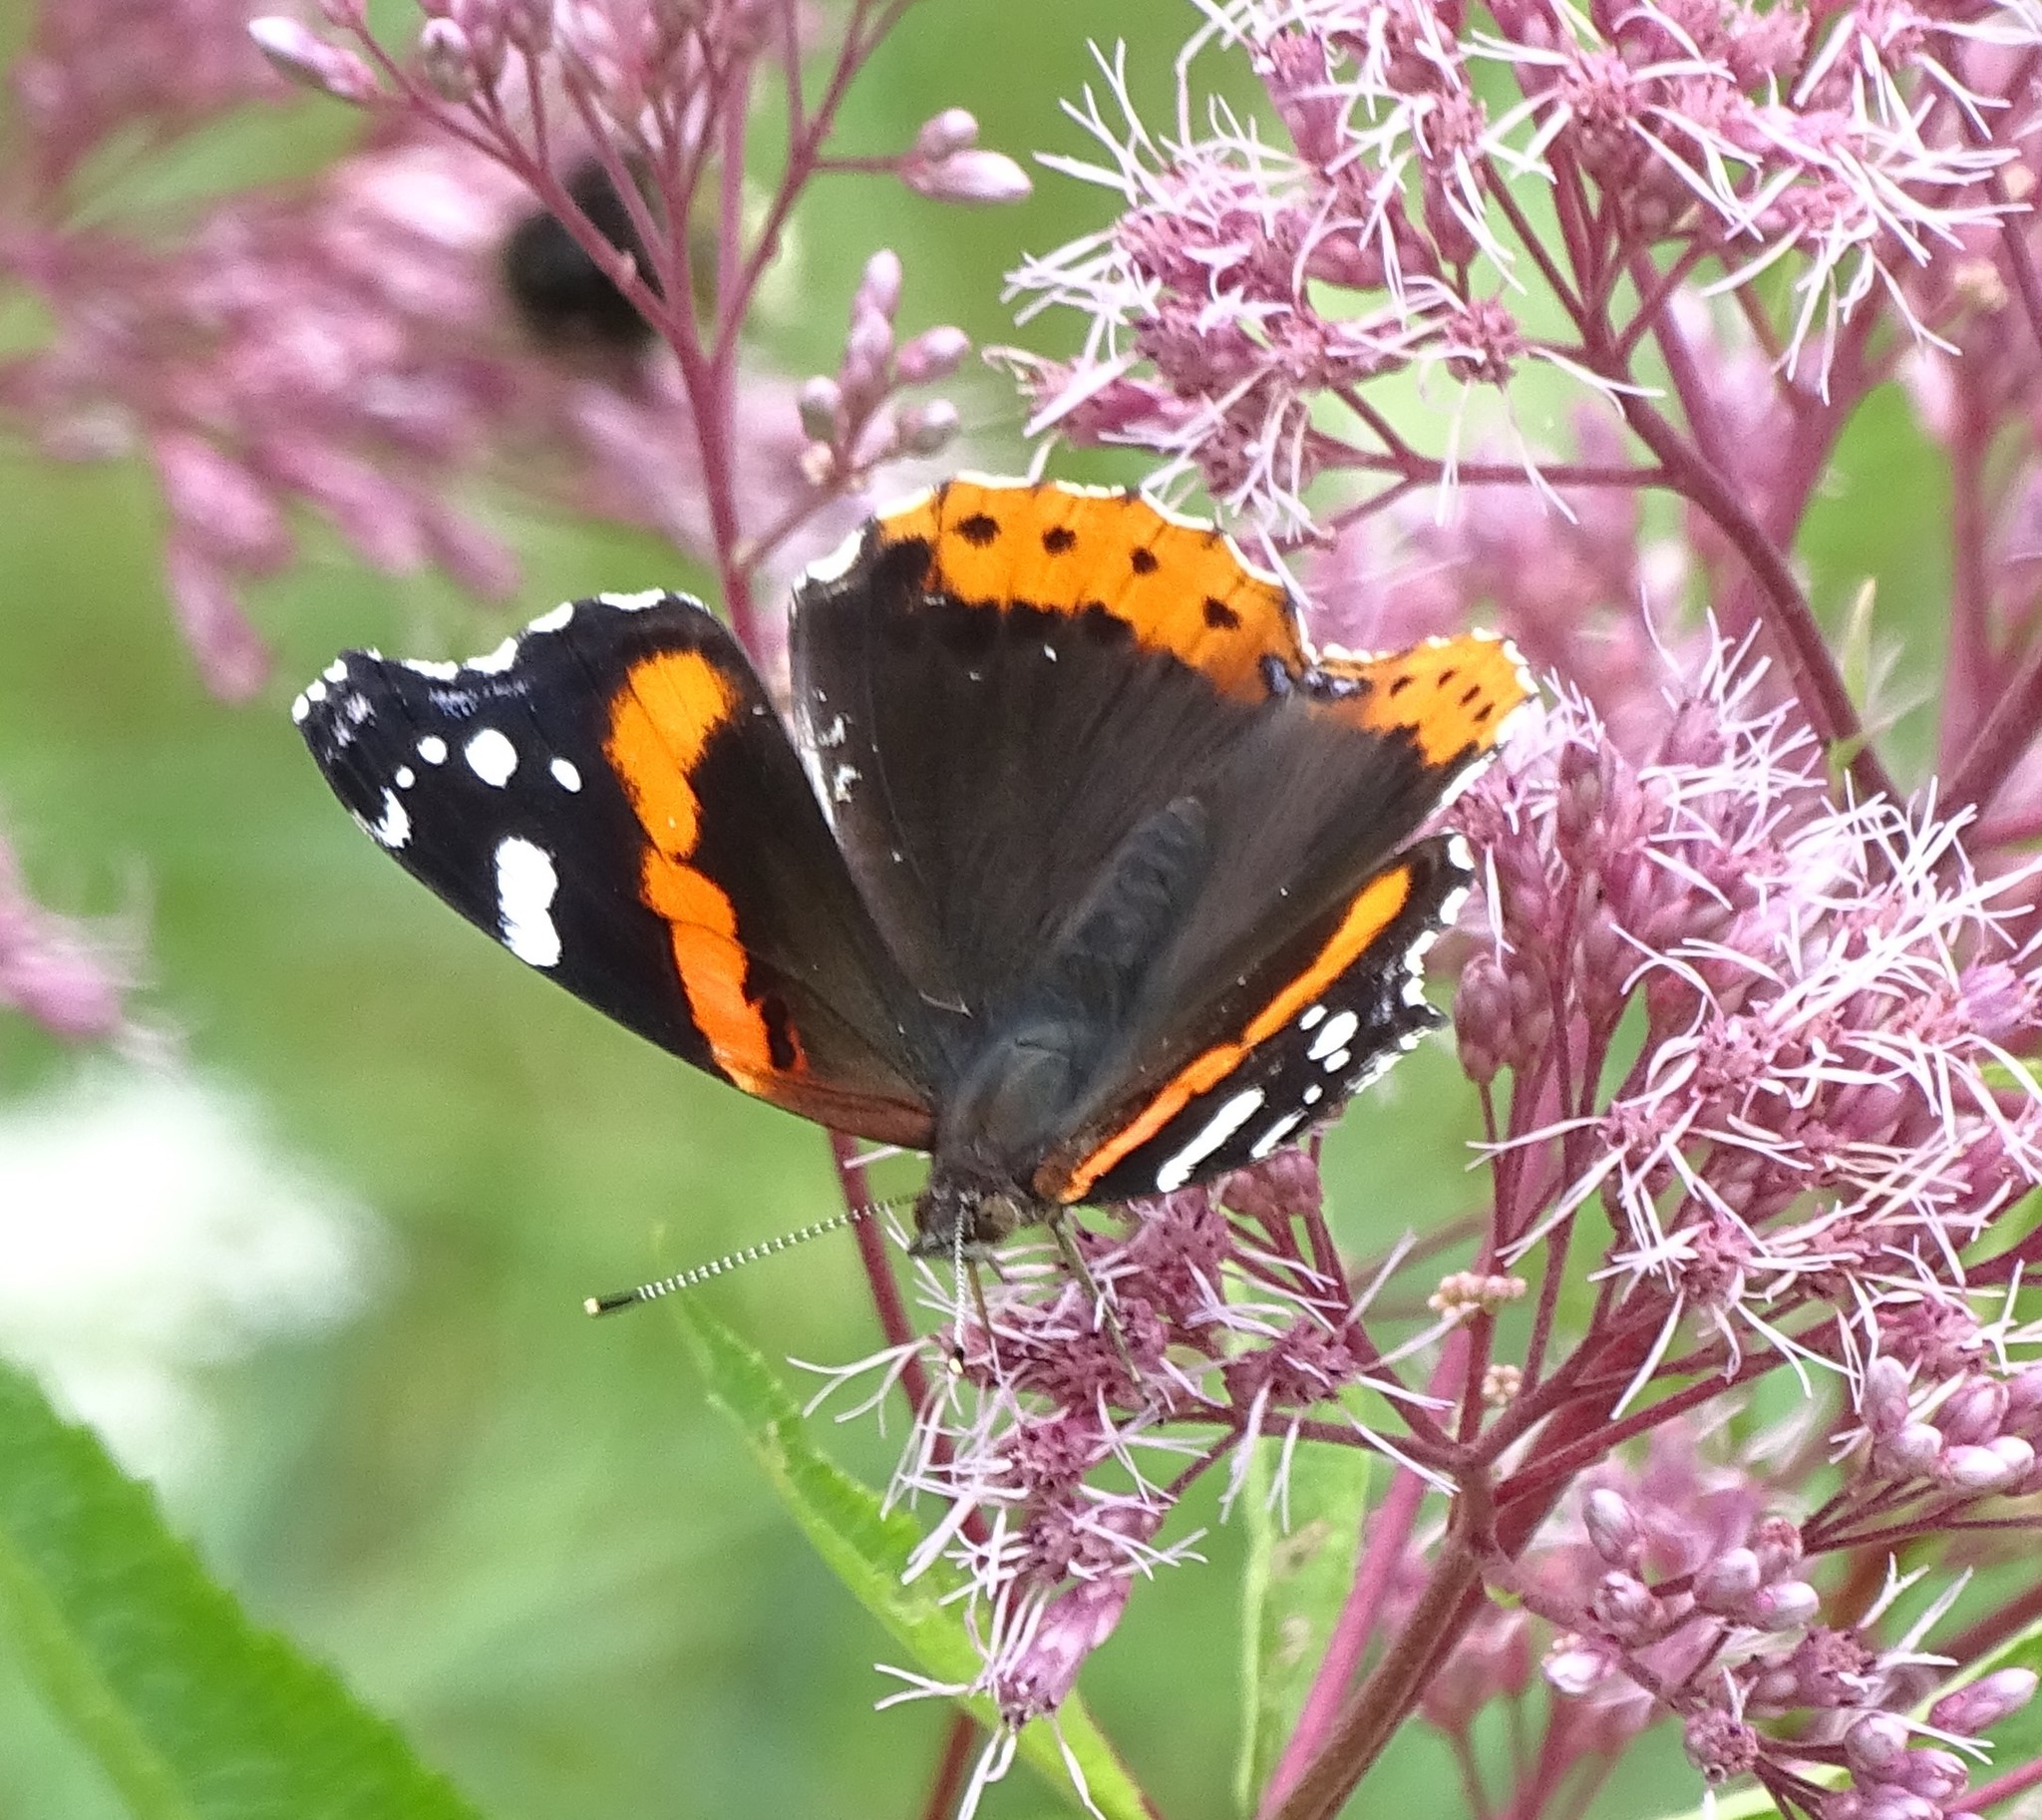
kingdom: Animalia
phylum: Arthropoda
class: Insecta
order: Lepidoptera
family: Nymphalidae
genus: Vanessa
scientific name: Vanessa atalanta
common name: Red admiral
